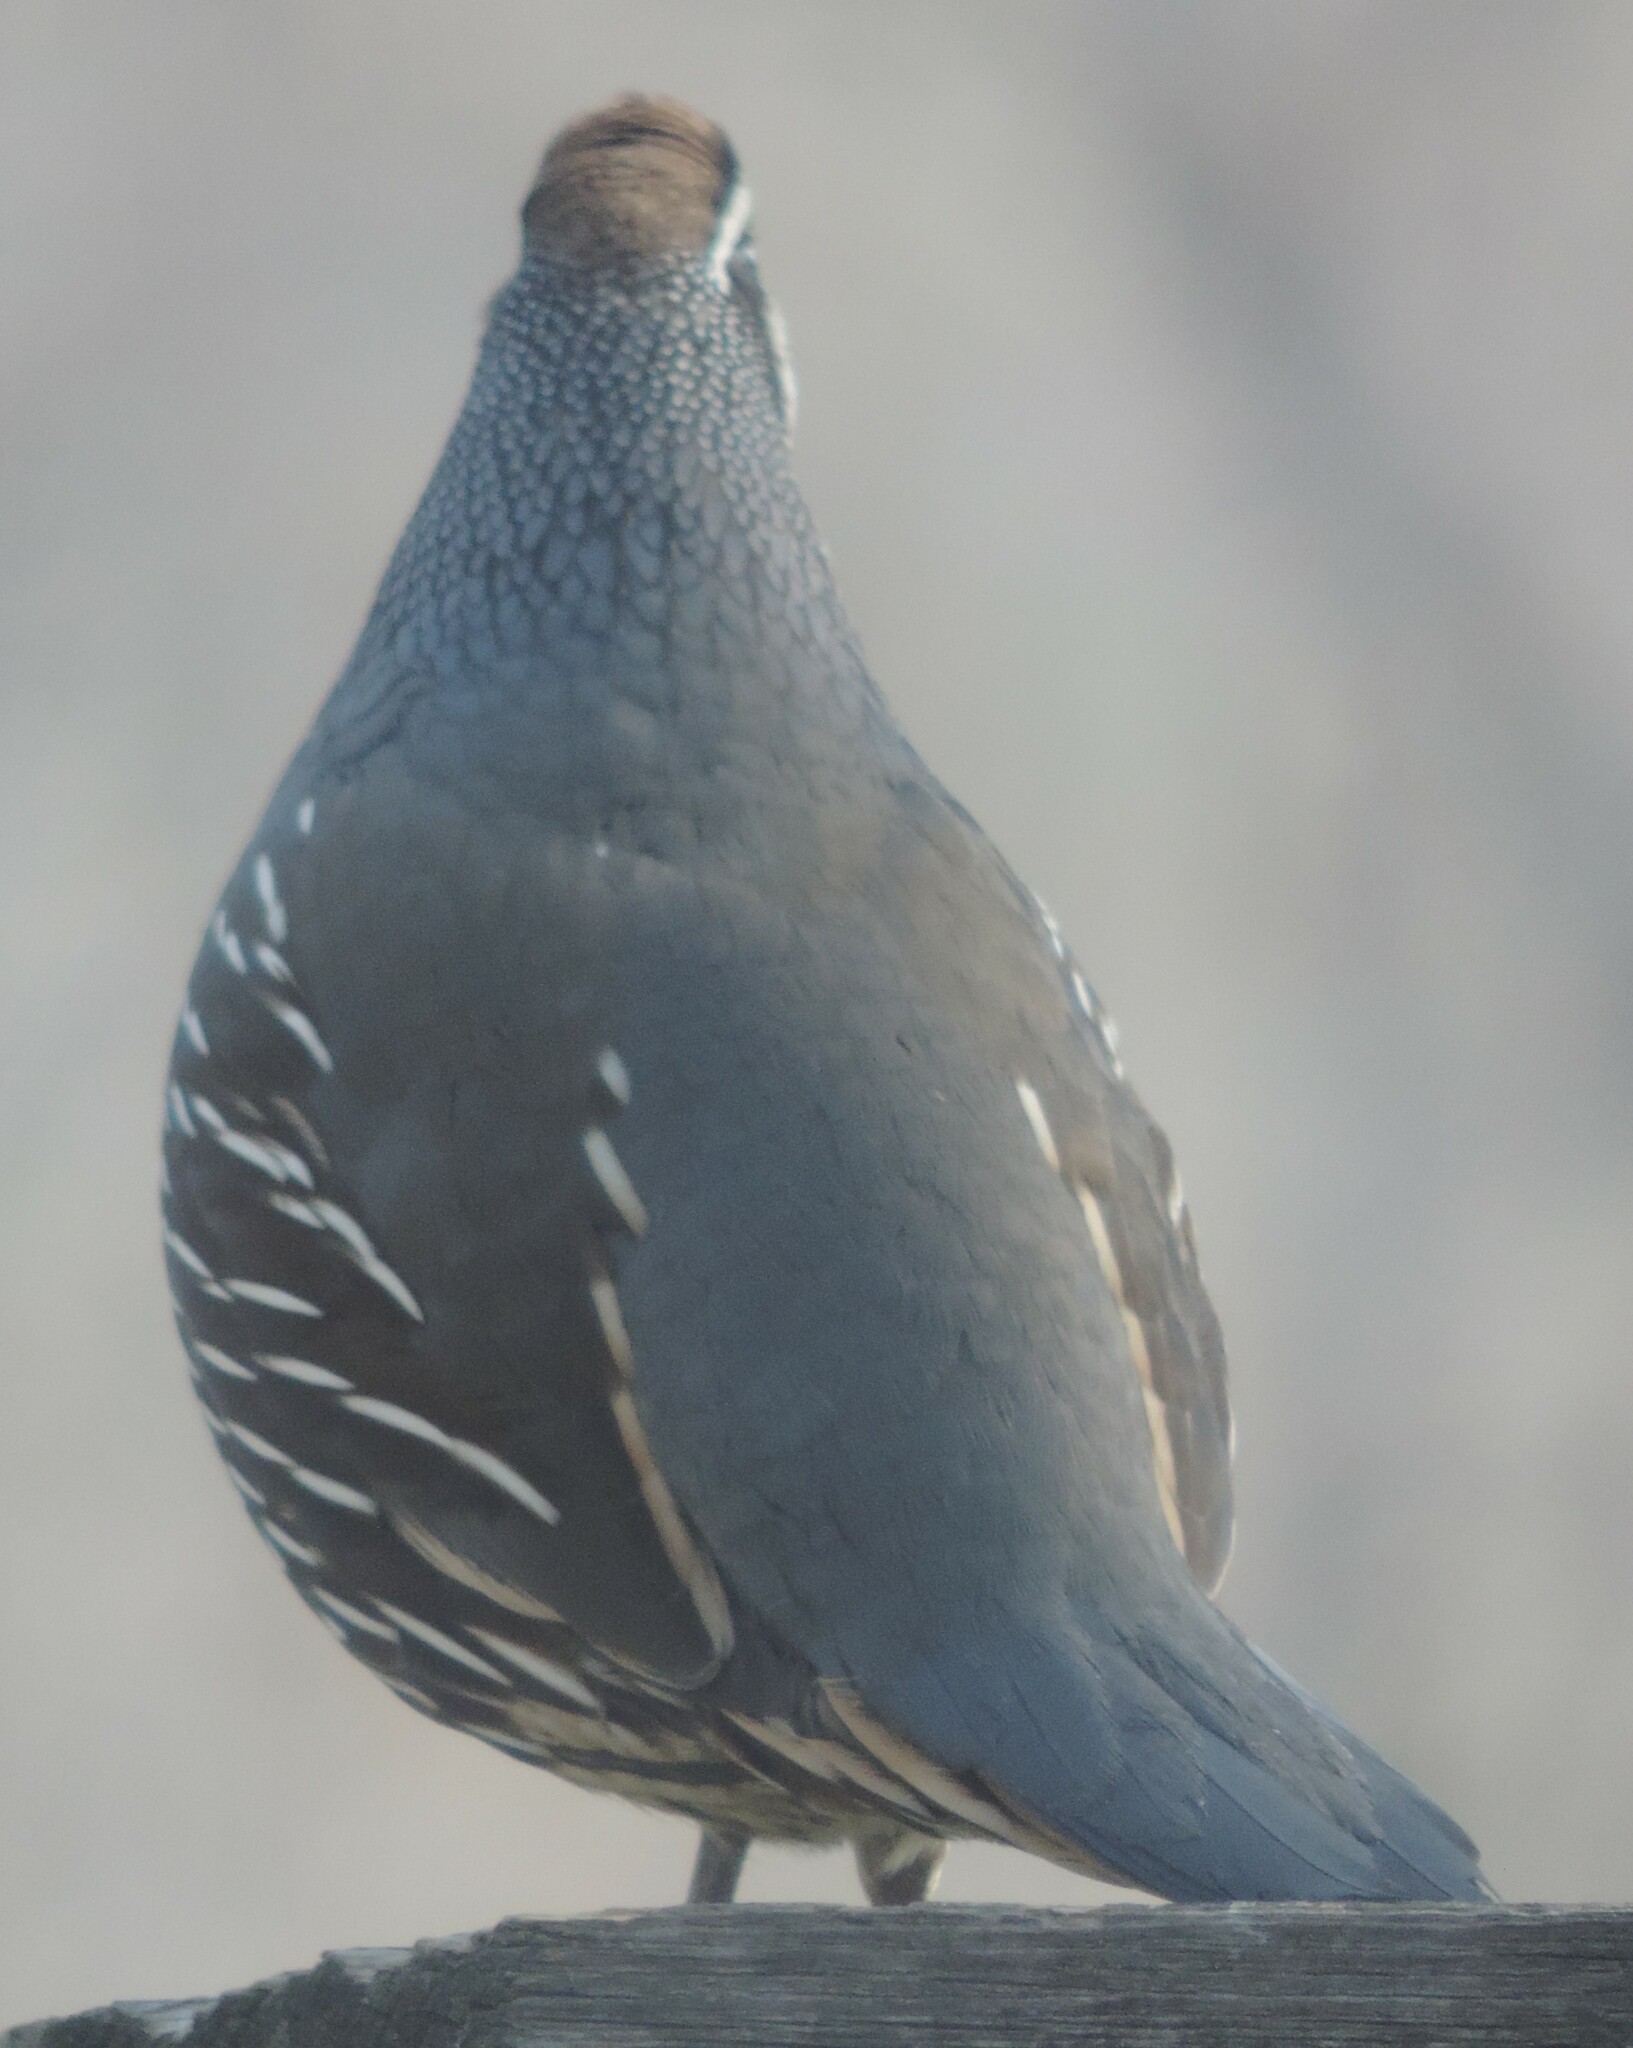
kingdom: Animalia
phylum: Chordata
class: Aves
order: Galliformes
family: Odontophoridae
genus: Callipepla
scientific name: Callipepla californica
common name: California quail
